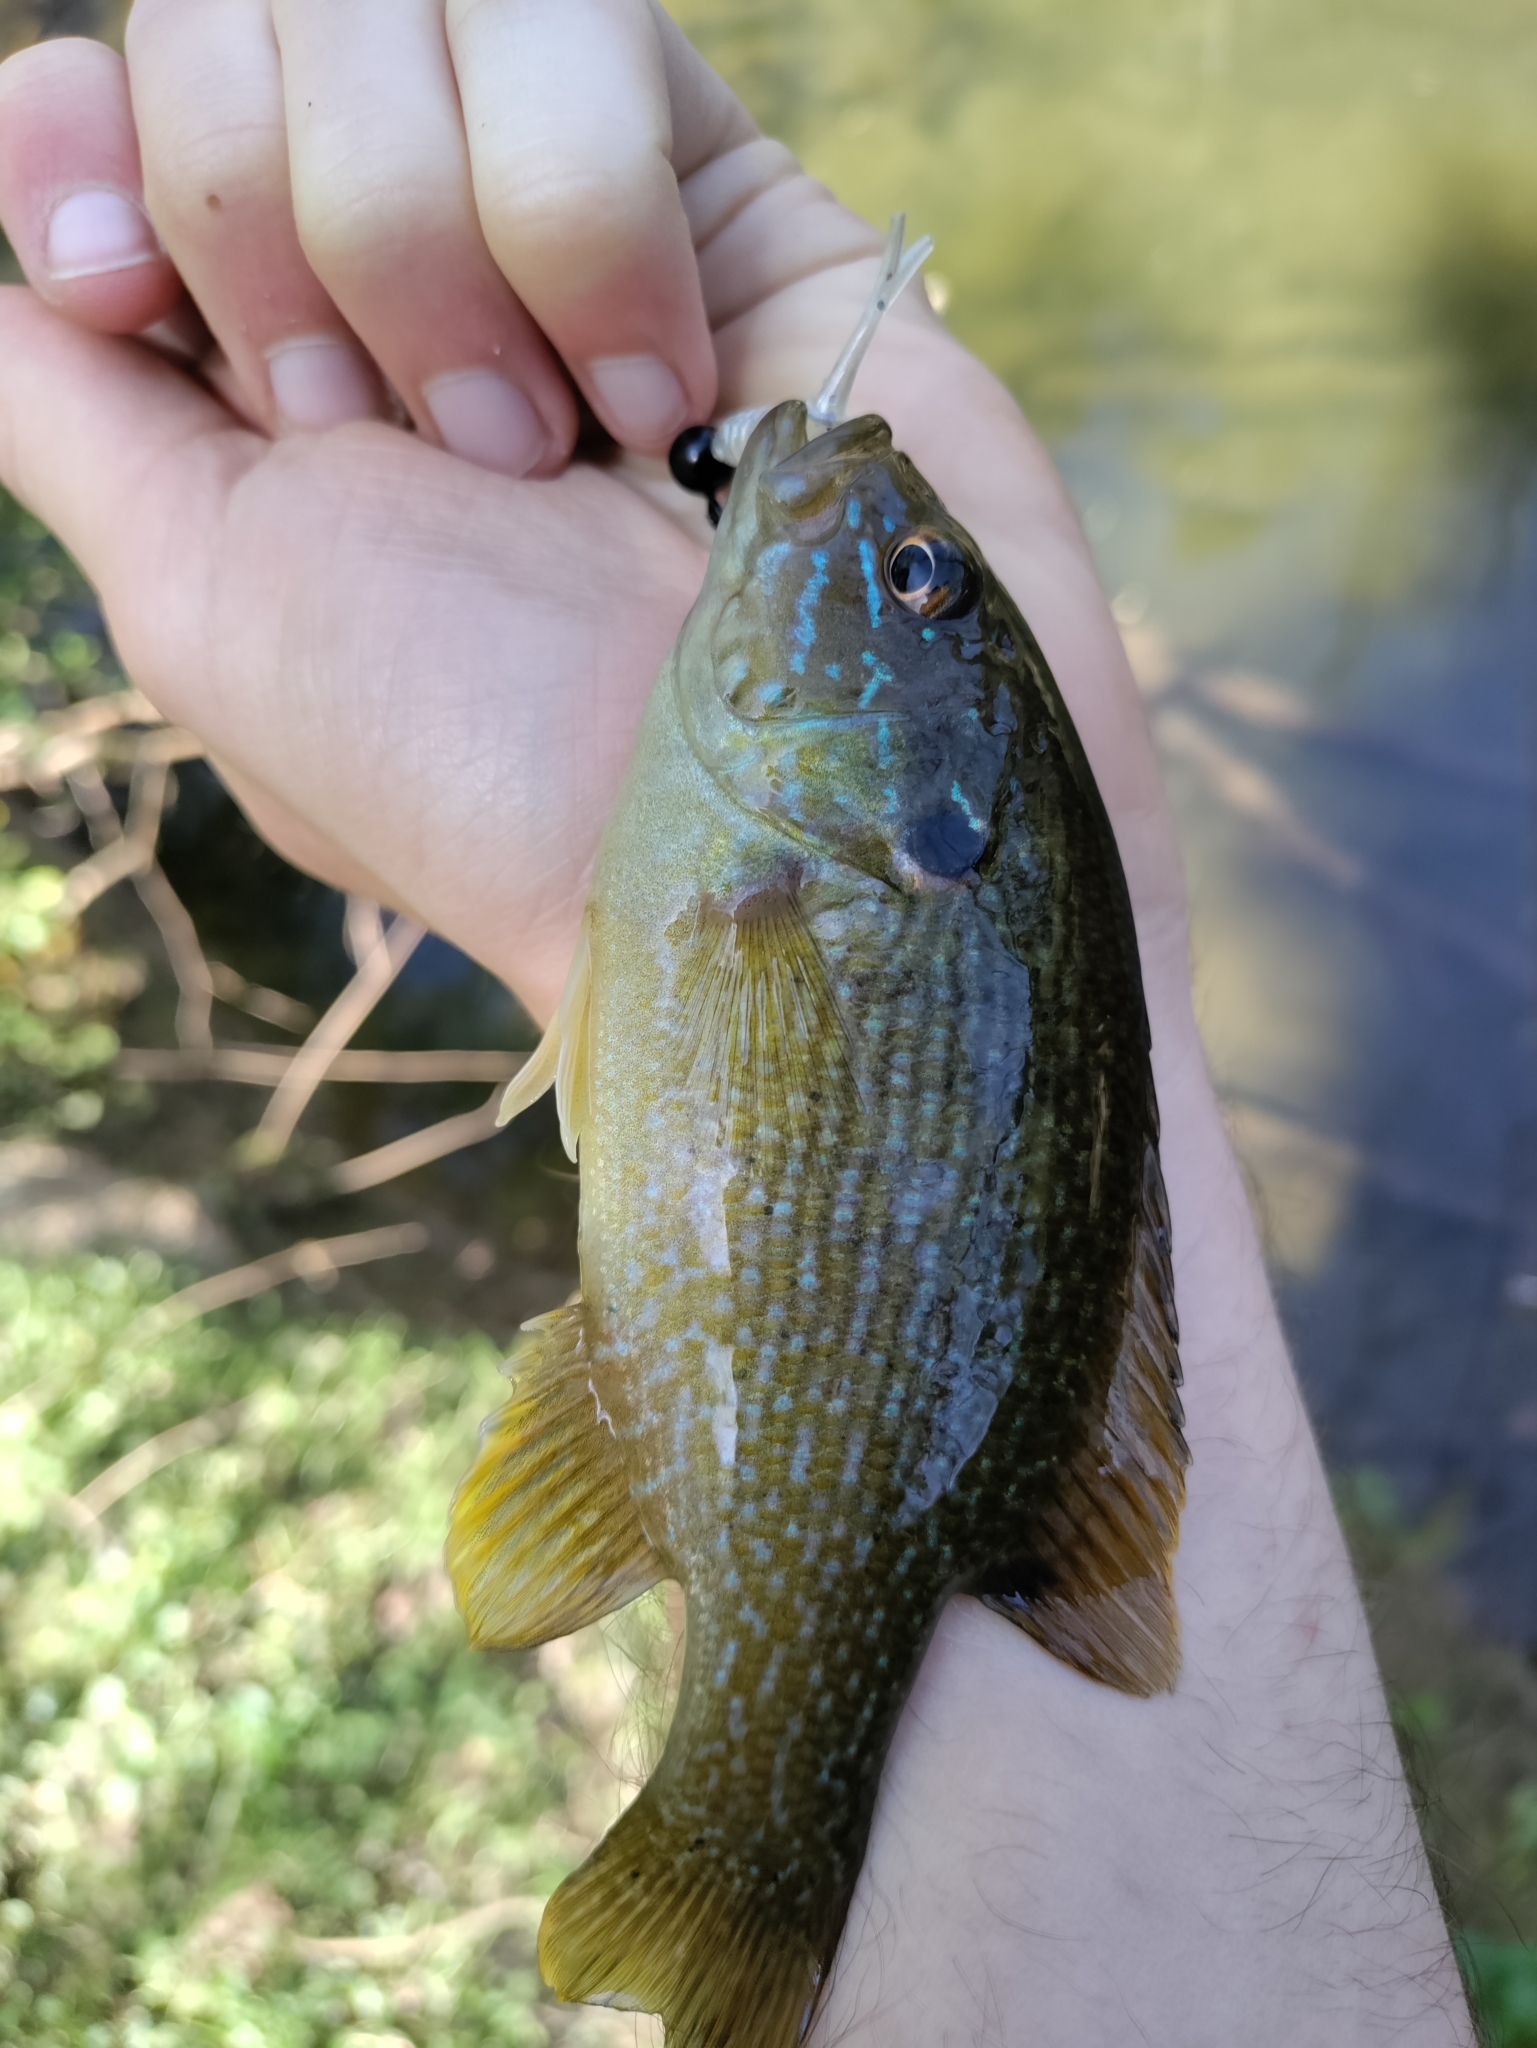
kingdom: Animalia
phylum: Chordata
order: Perciformes
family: Centrarchidae
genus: Lepomis
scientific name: Lepomis cyanellus
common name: Green sunfish
